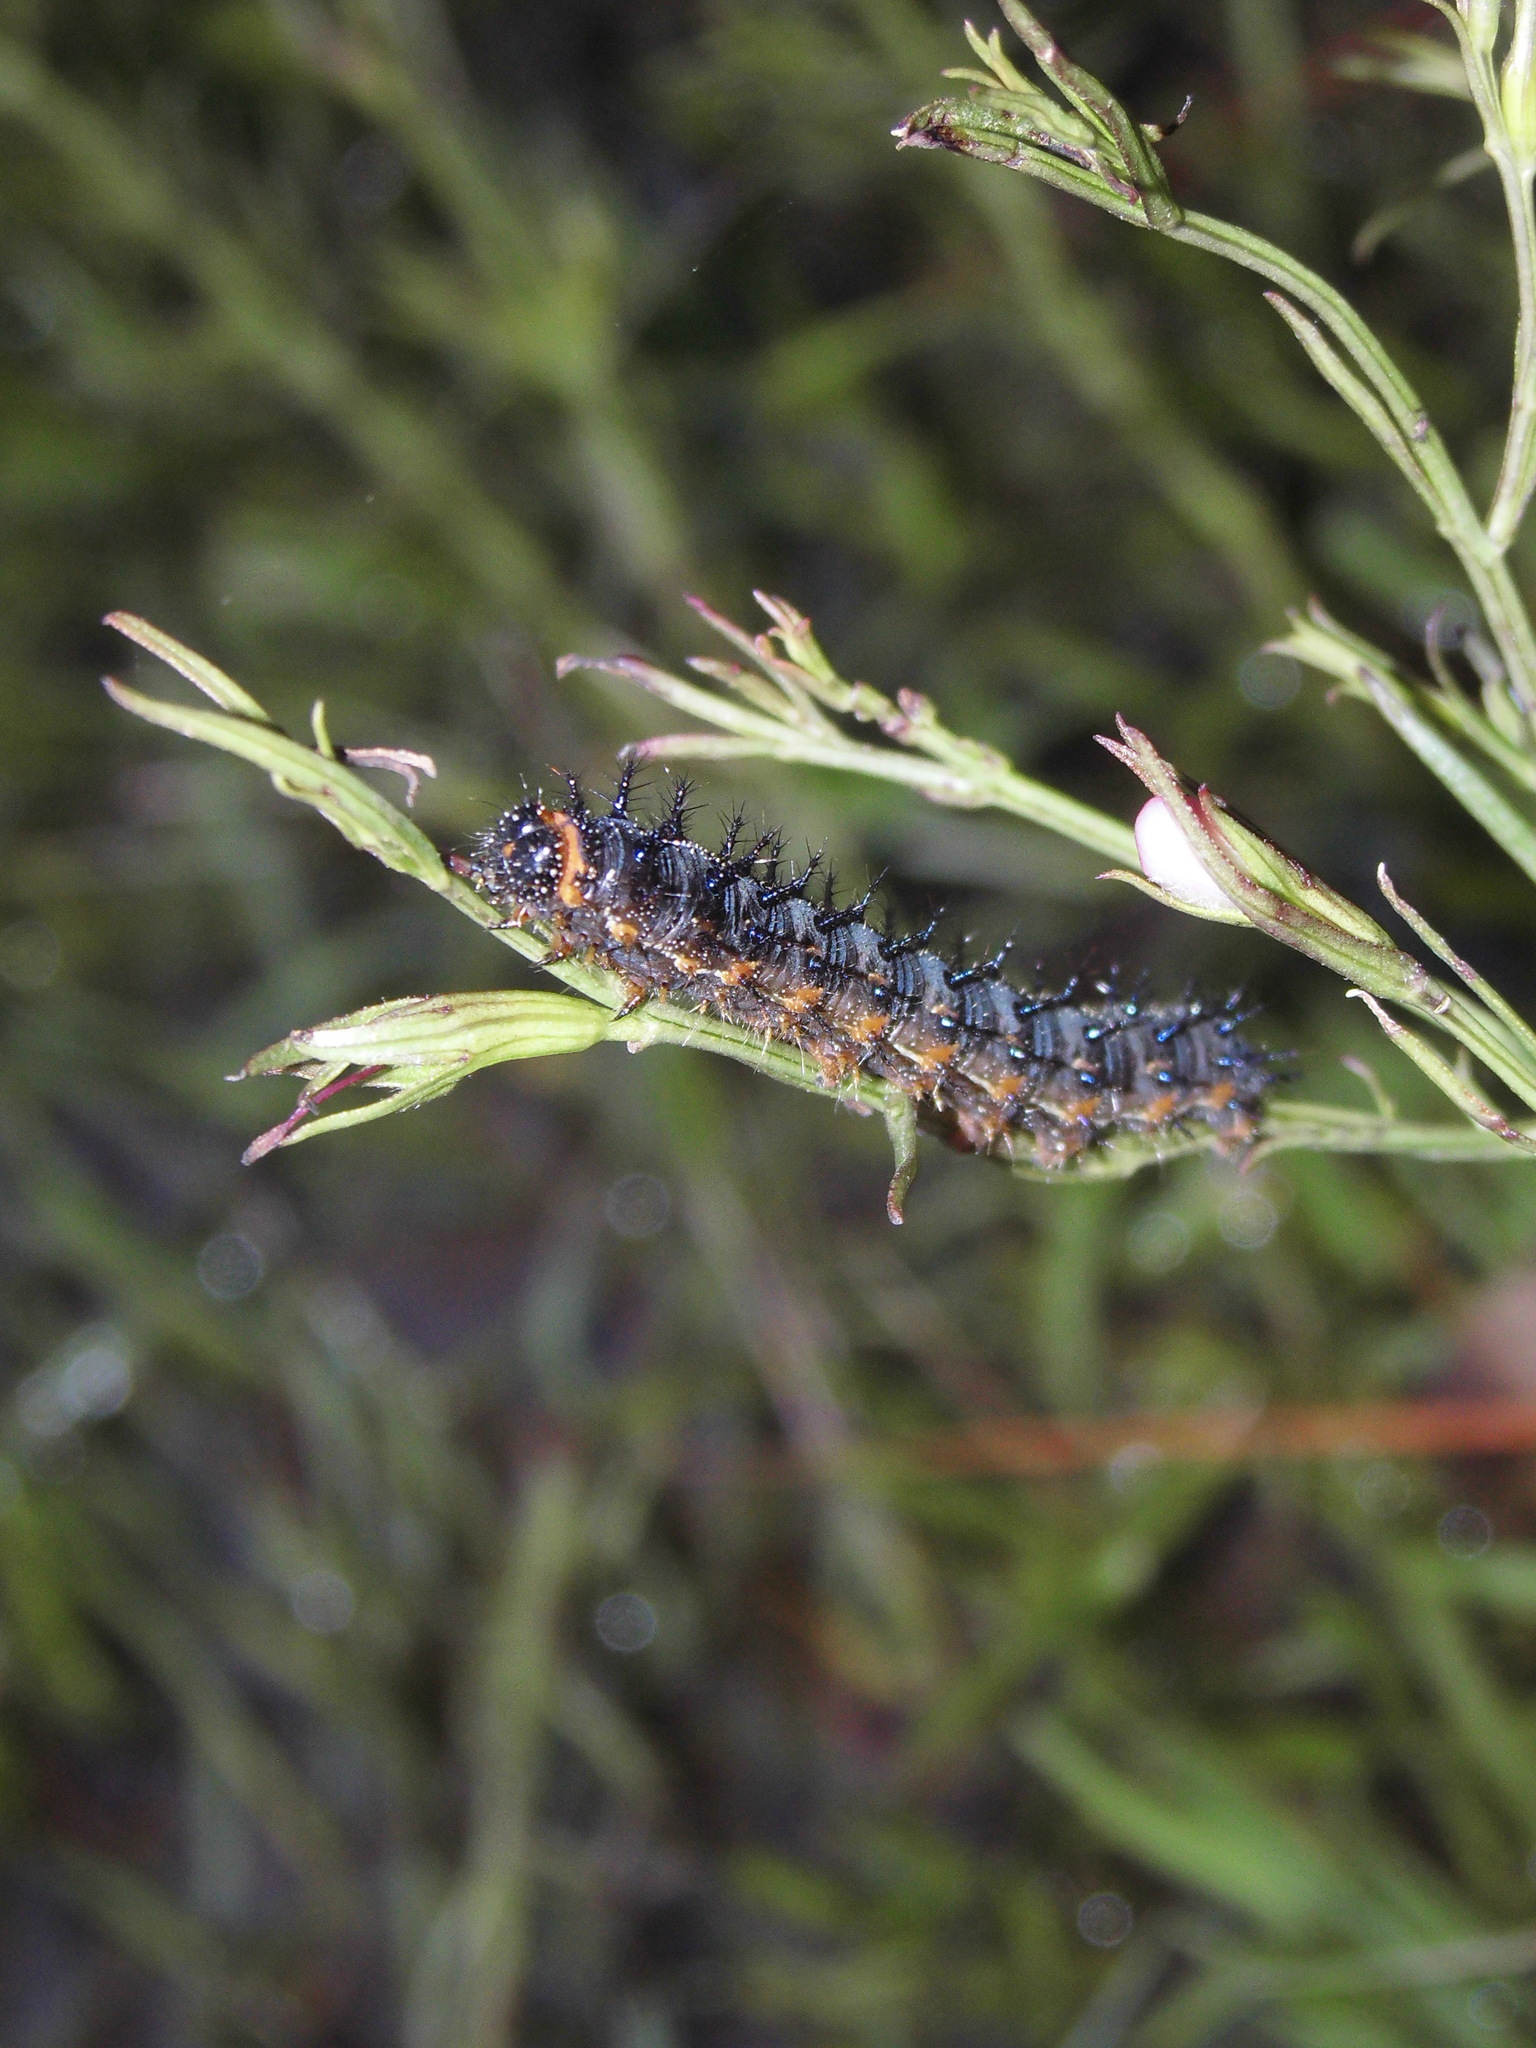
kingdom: Animalia
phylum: Arthropoda
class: Insecta
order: Lepidoptera
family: Nymphalidae
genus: Junonia
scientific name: Junonia lavinia
